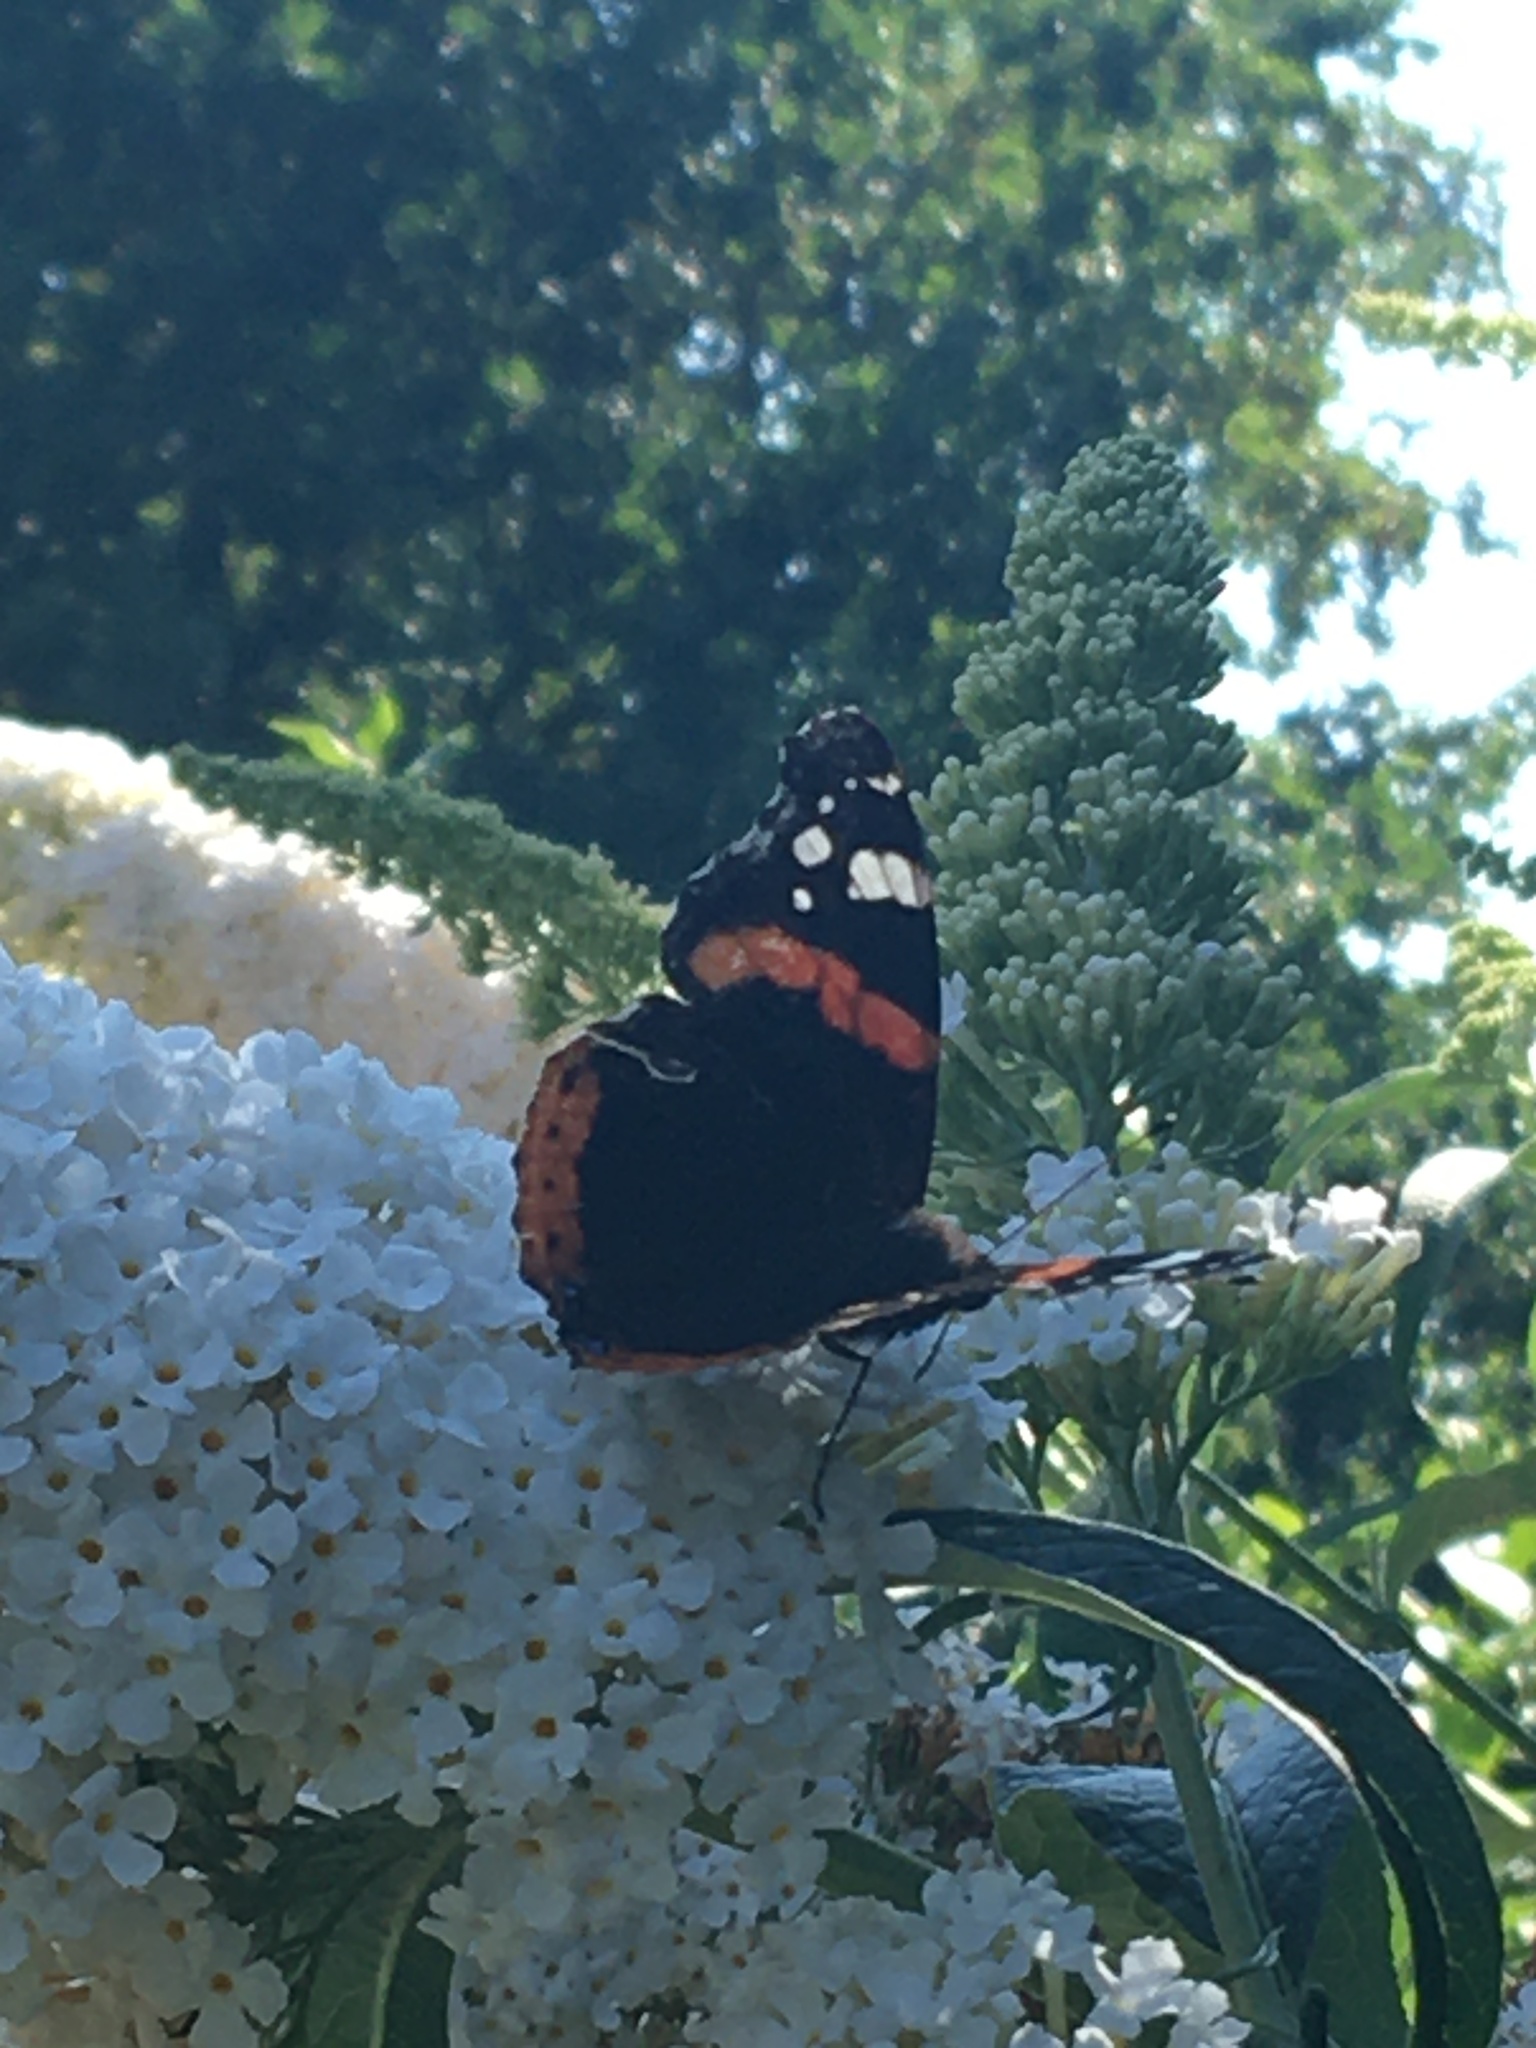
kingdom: Animalia
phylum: Arthropoda
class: Insecta
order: Lepidoptera
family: Nymphalidae
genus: Vanessa
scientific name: Vanessa atalanta
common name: Red admiral
